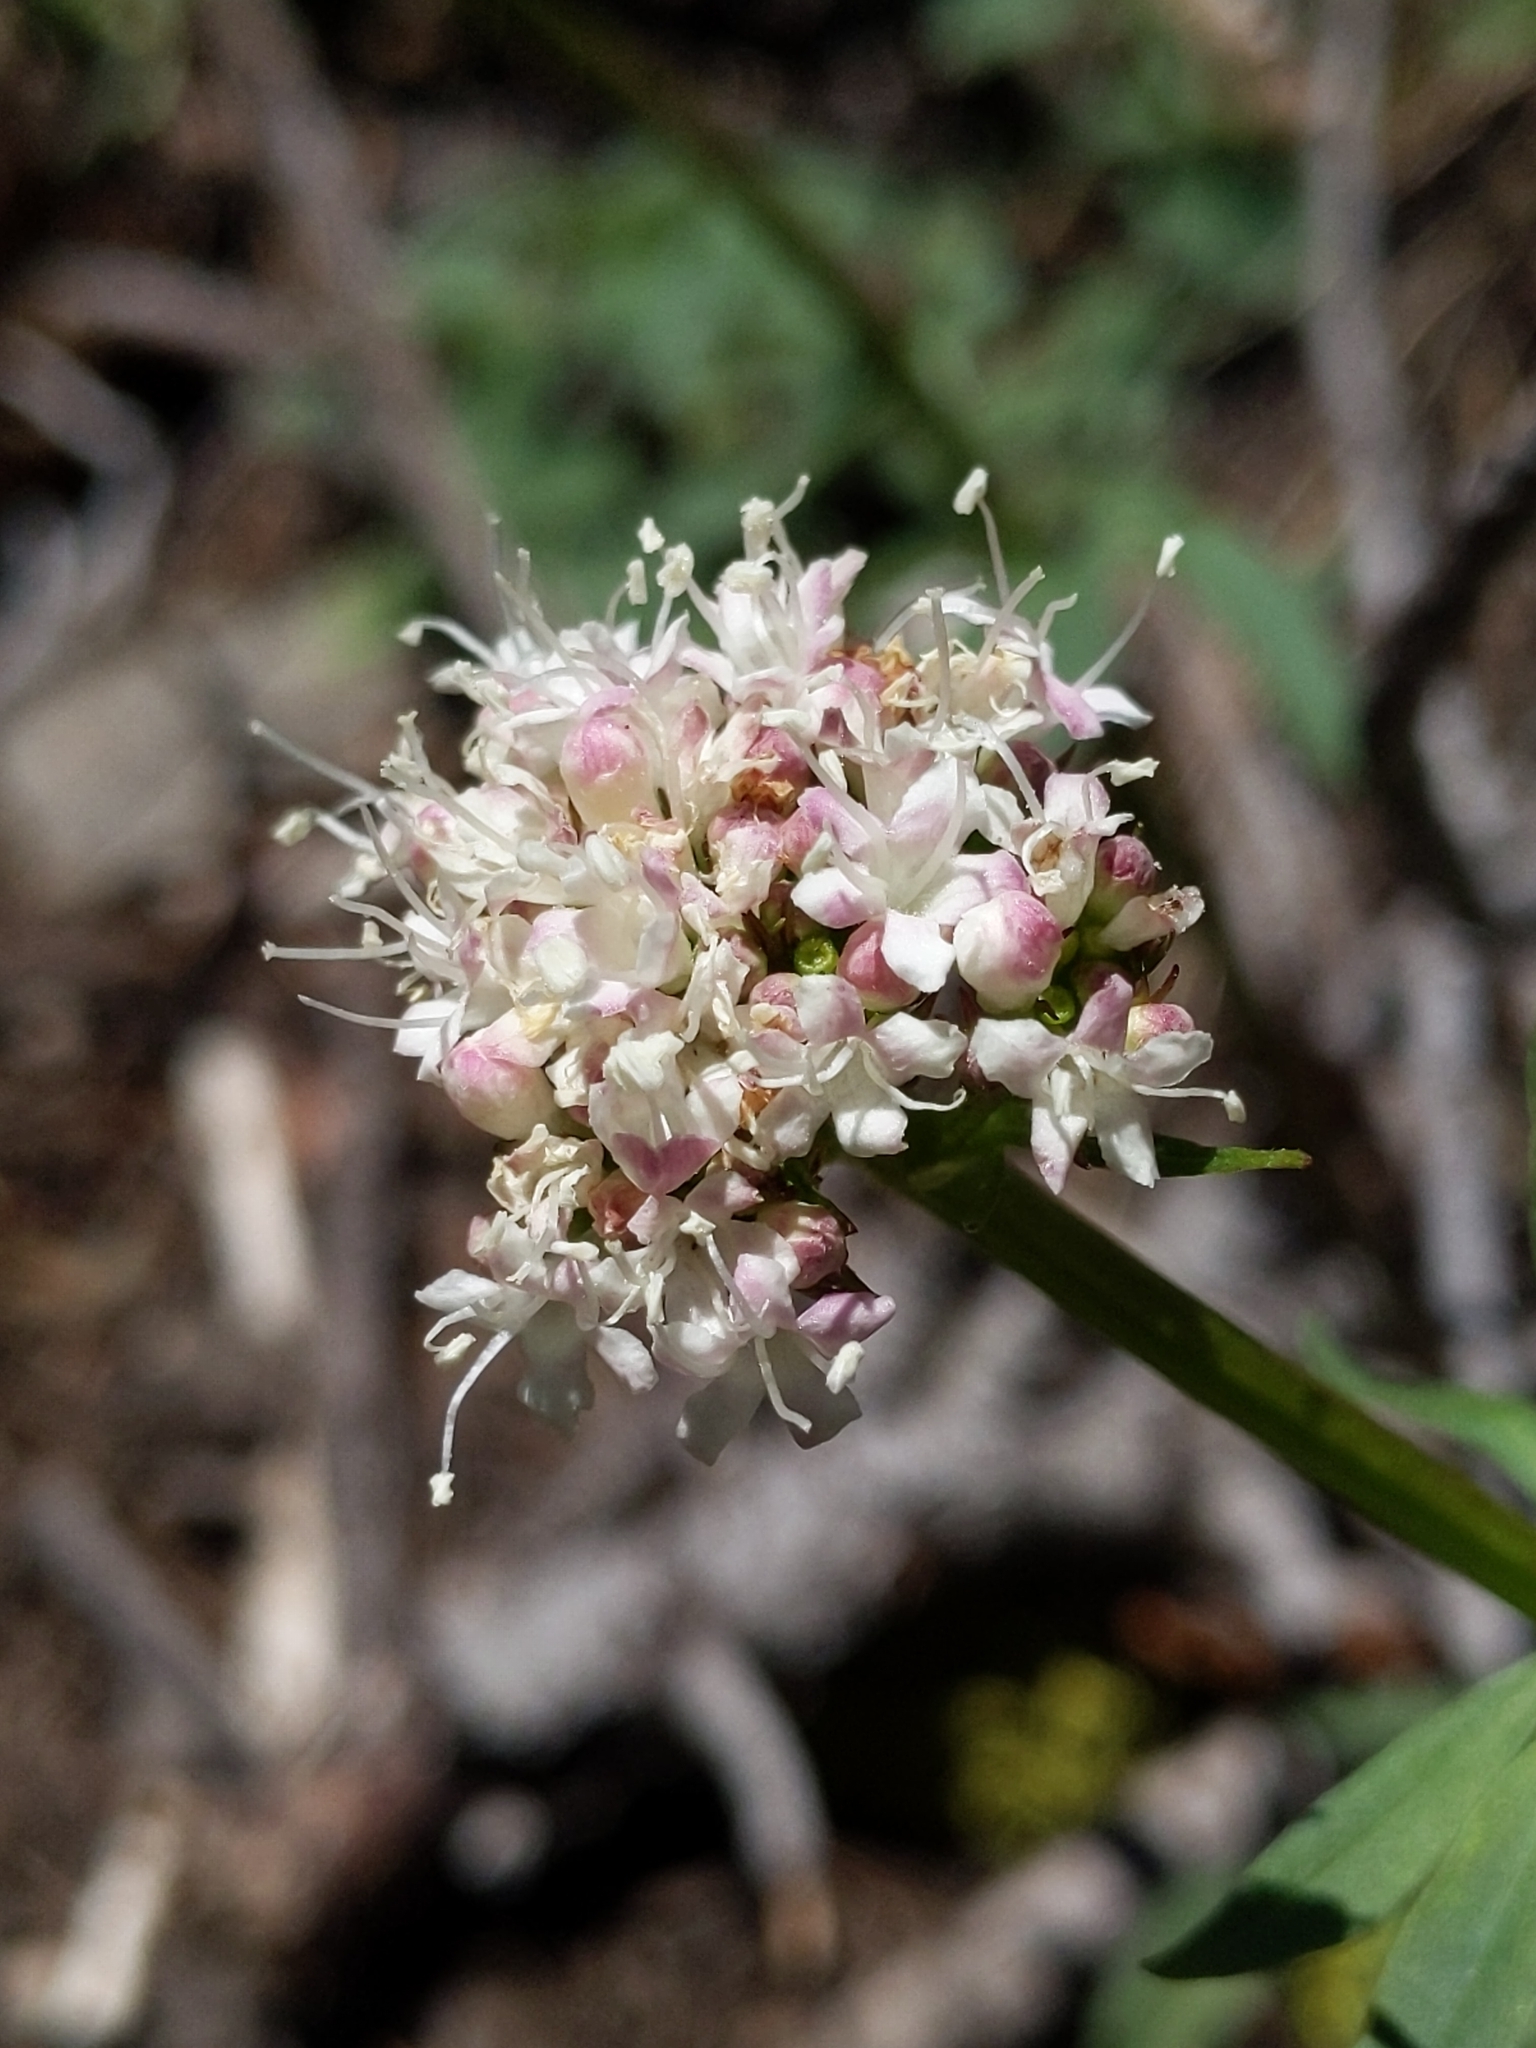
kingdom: Plantae
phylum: Tracheophyta
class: Magnoliopsida
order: Dipsacales
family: Caprifoliaceae
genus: Valeriana
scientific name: Valeriana californica
